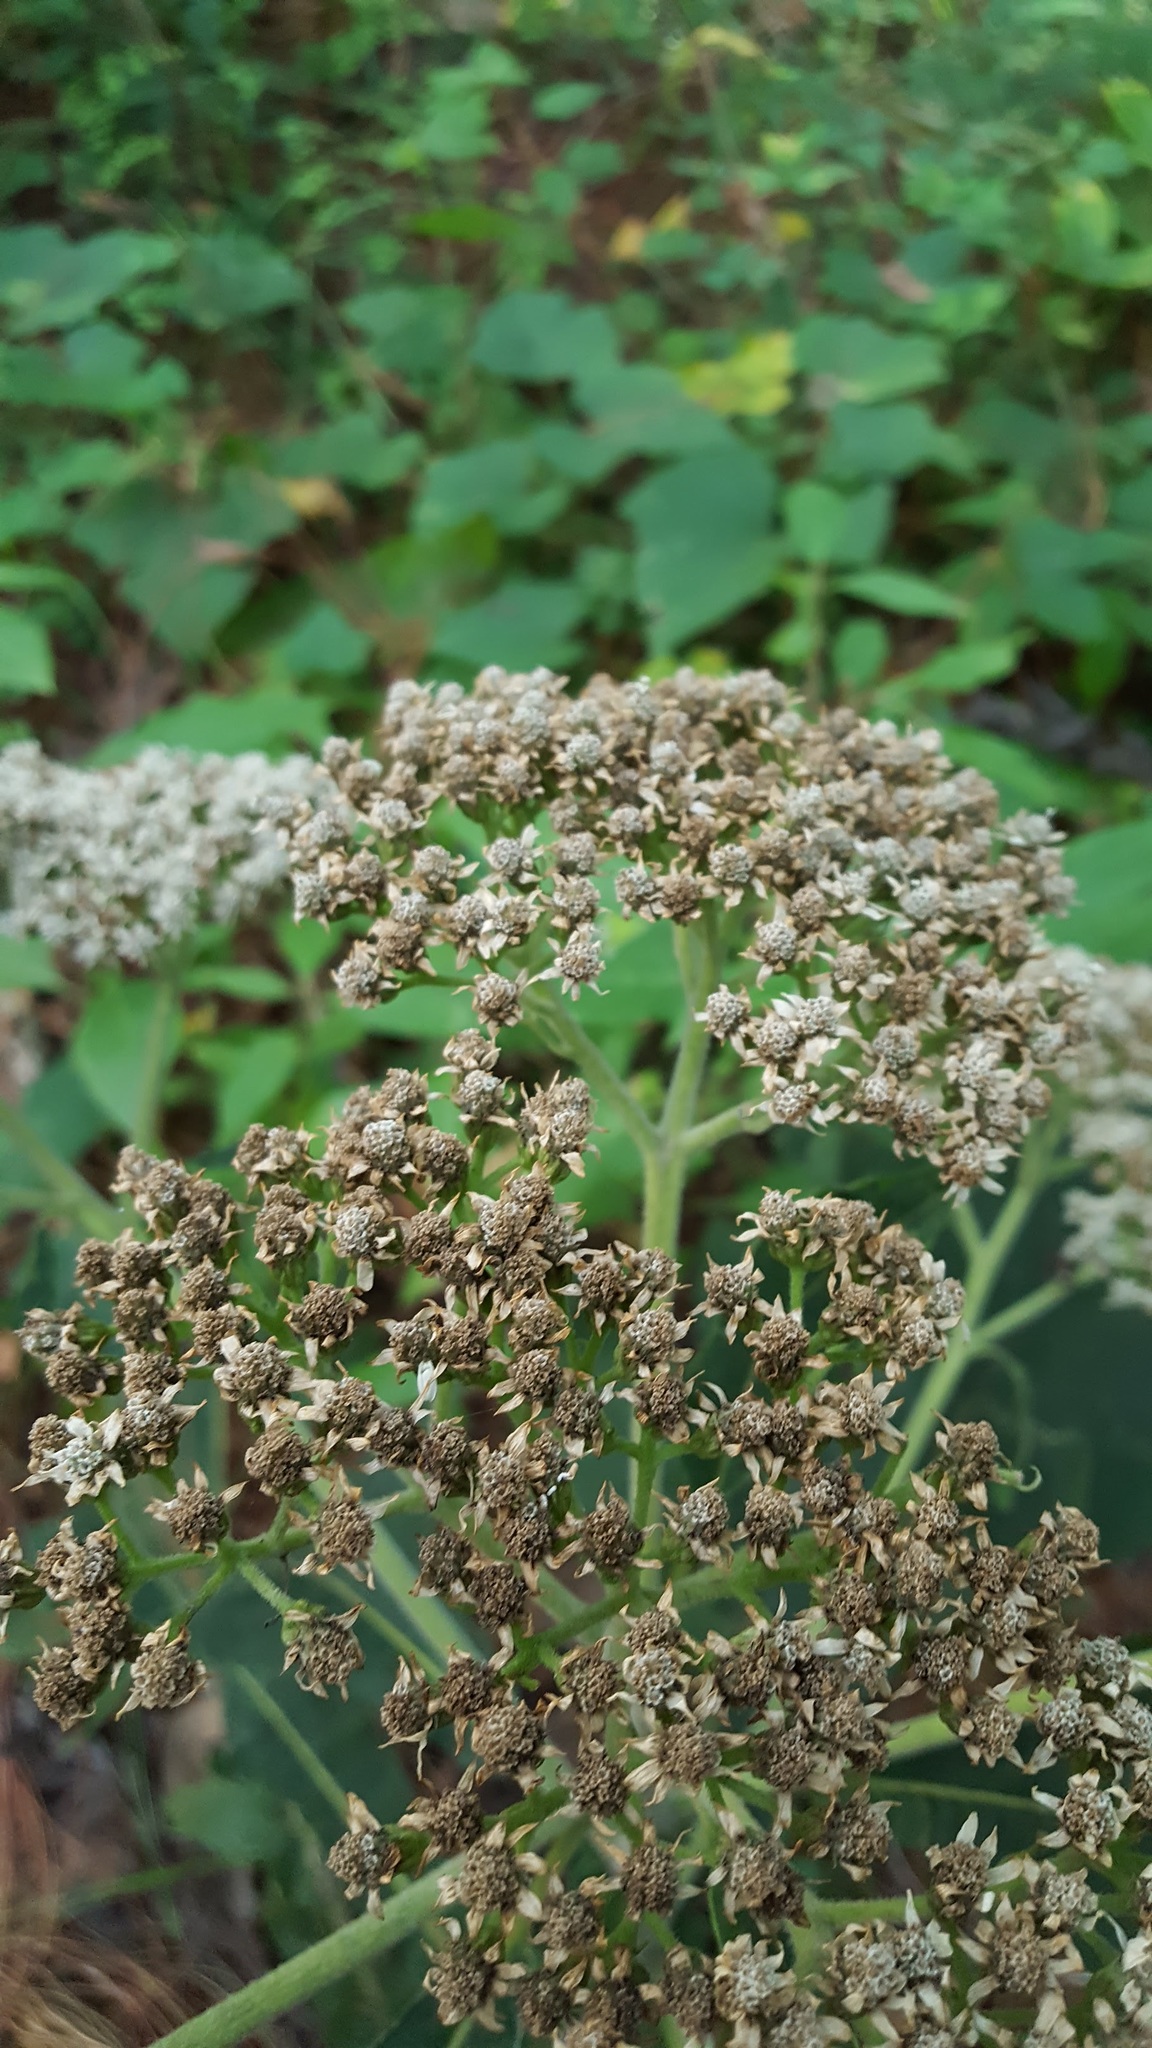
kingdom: Plantae
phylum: Tracheophyta
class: Magnoliopsida
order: Asterales
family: Asteraceae
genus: Verbesina
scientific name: Verbesina turbacensis
